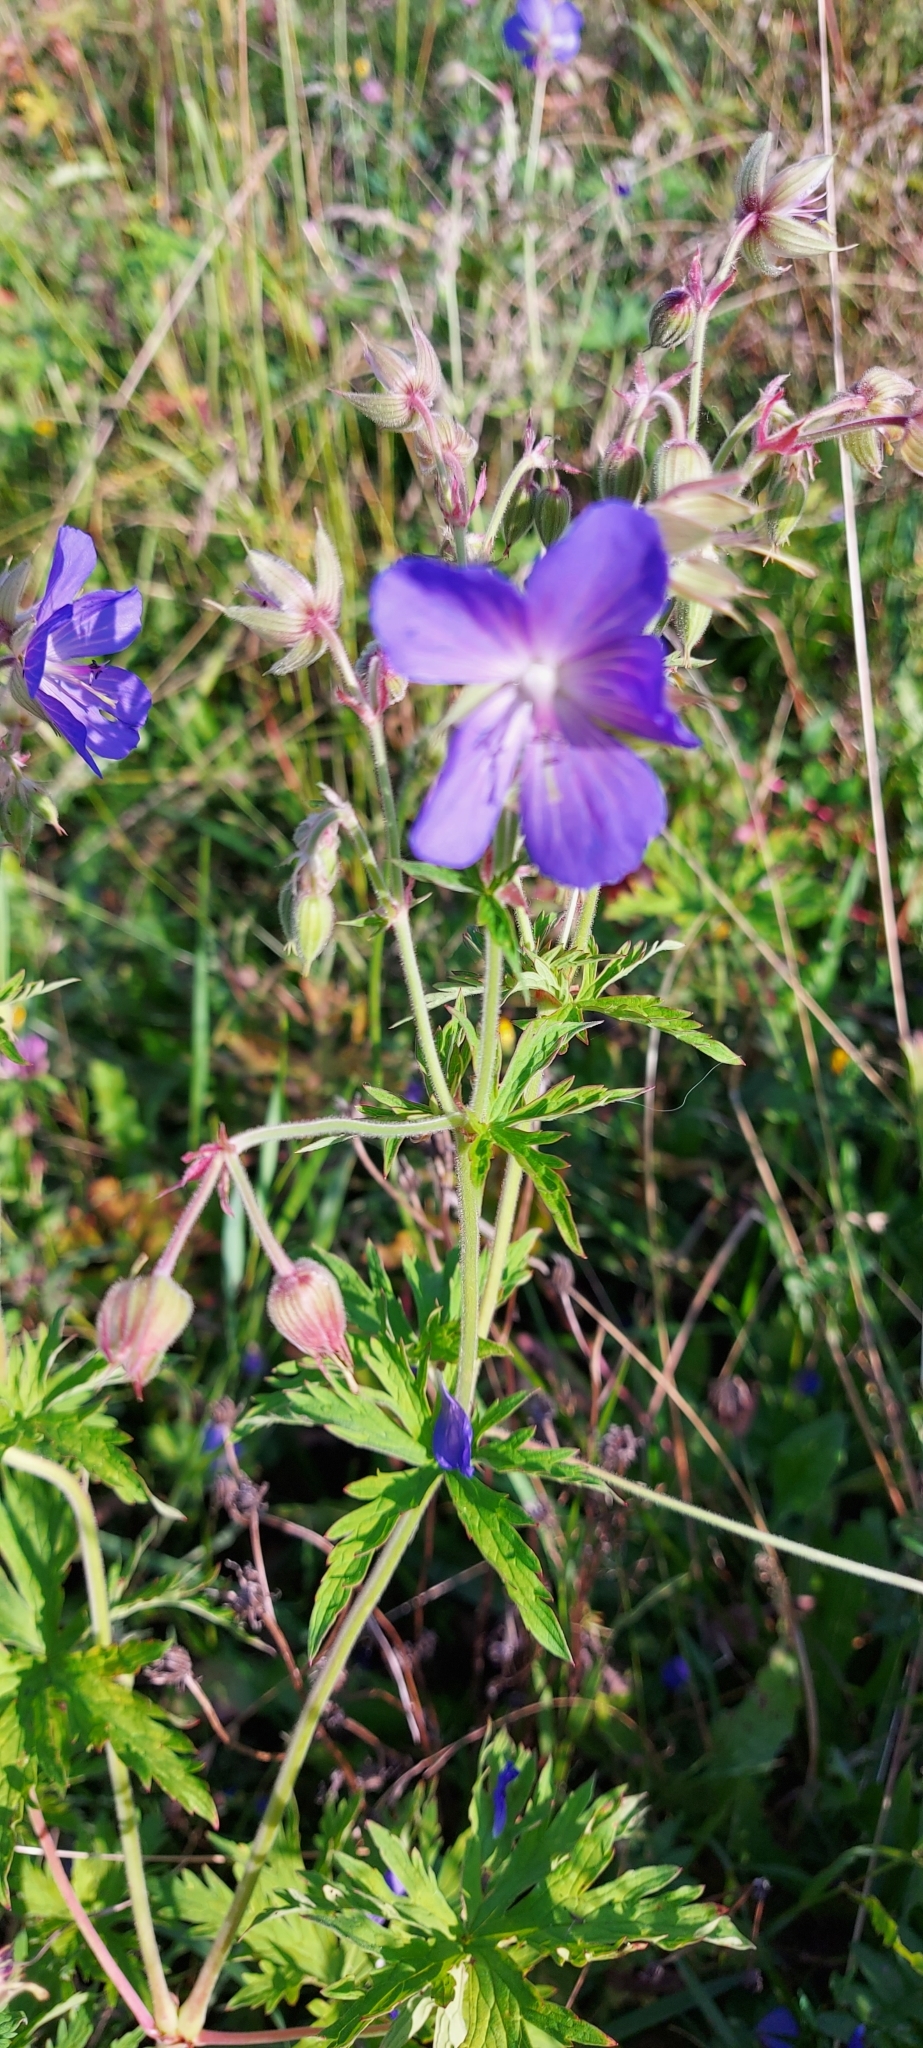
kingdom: Plantae
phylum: Tracheophyta
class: Magnoliopsida
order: Geraniales
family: Geraniaceae
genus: Geranium
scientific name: Geranium pratense
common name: Meadow crane's-bill
